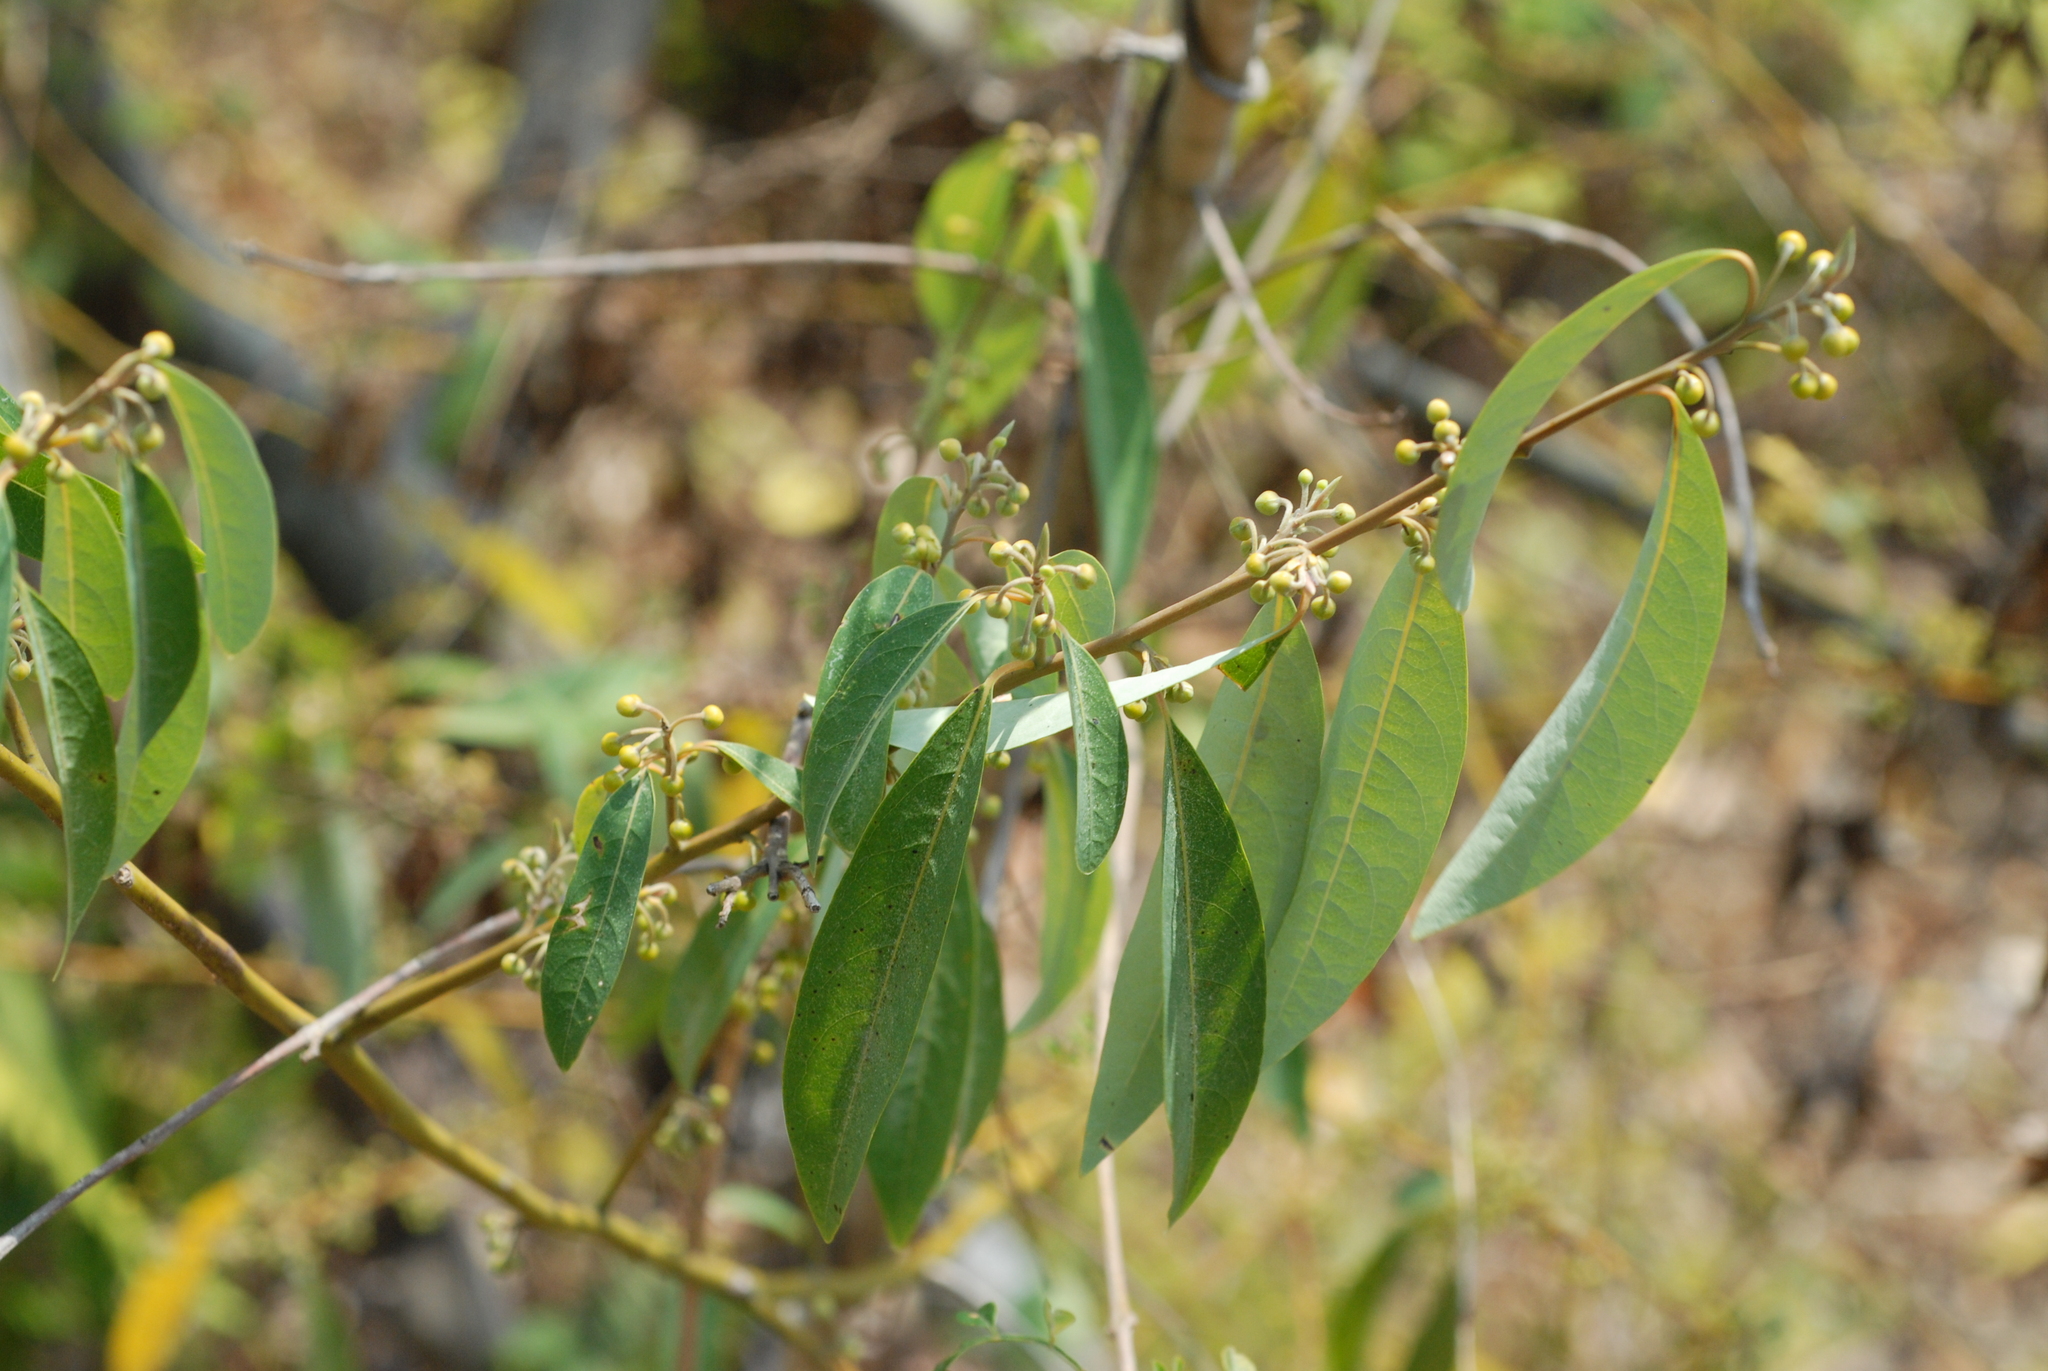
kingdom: Plantae
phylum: Tracheophyta
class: Magnoliopsida
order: Laurales
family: Lauraceae
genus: Litsea
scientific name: Litsea cubeba
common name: Mountain-pepper
